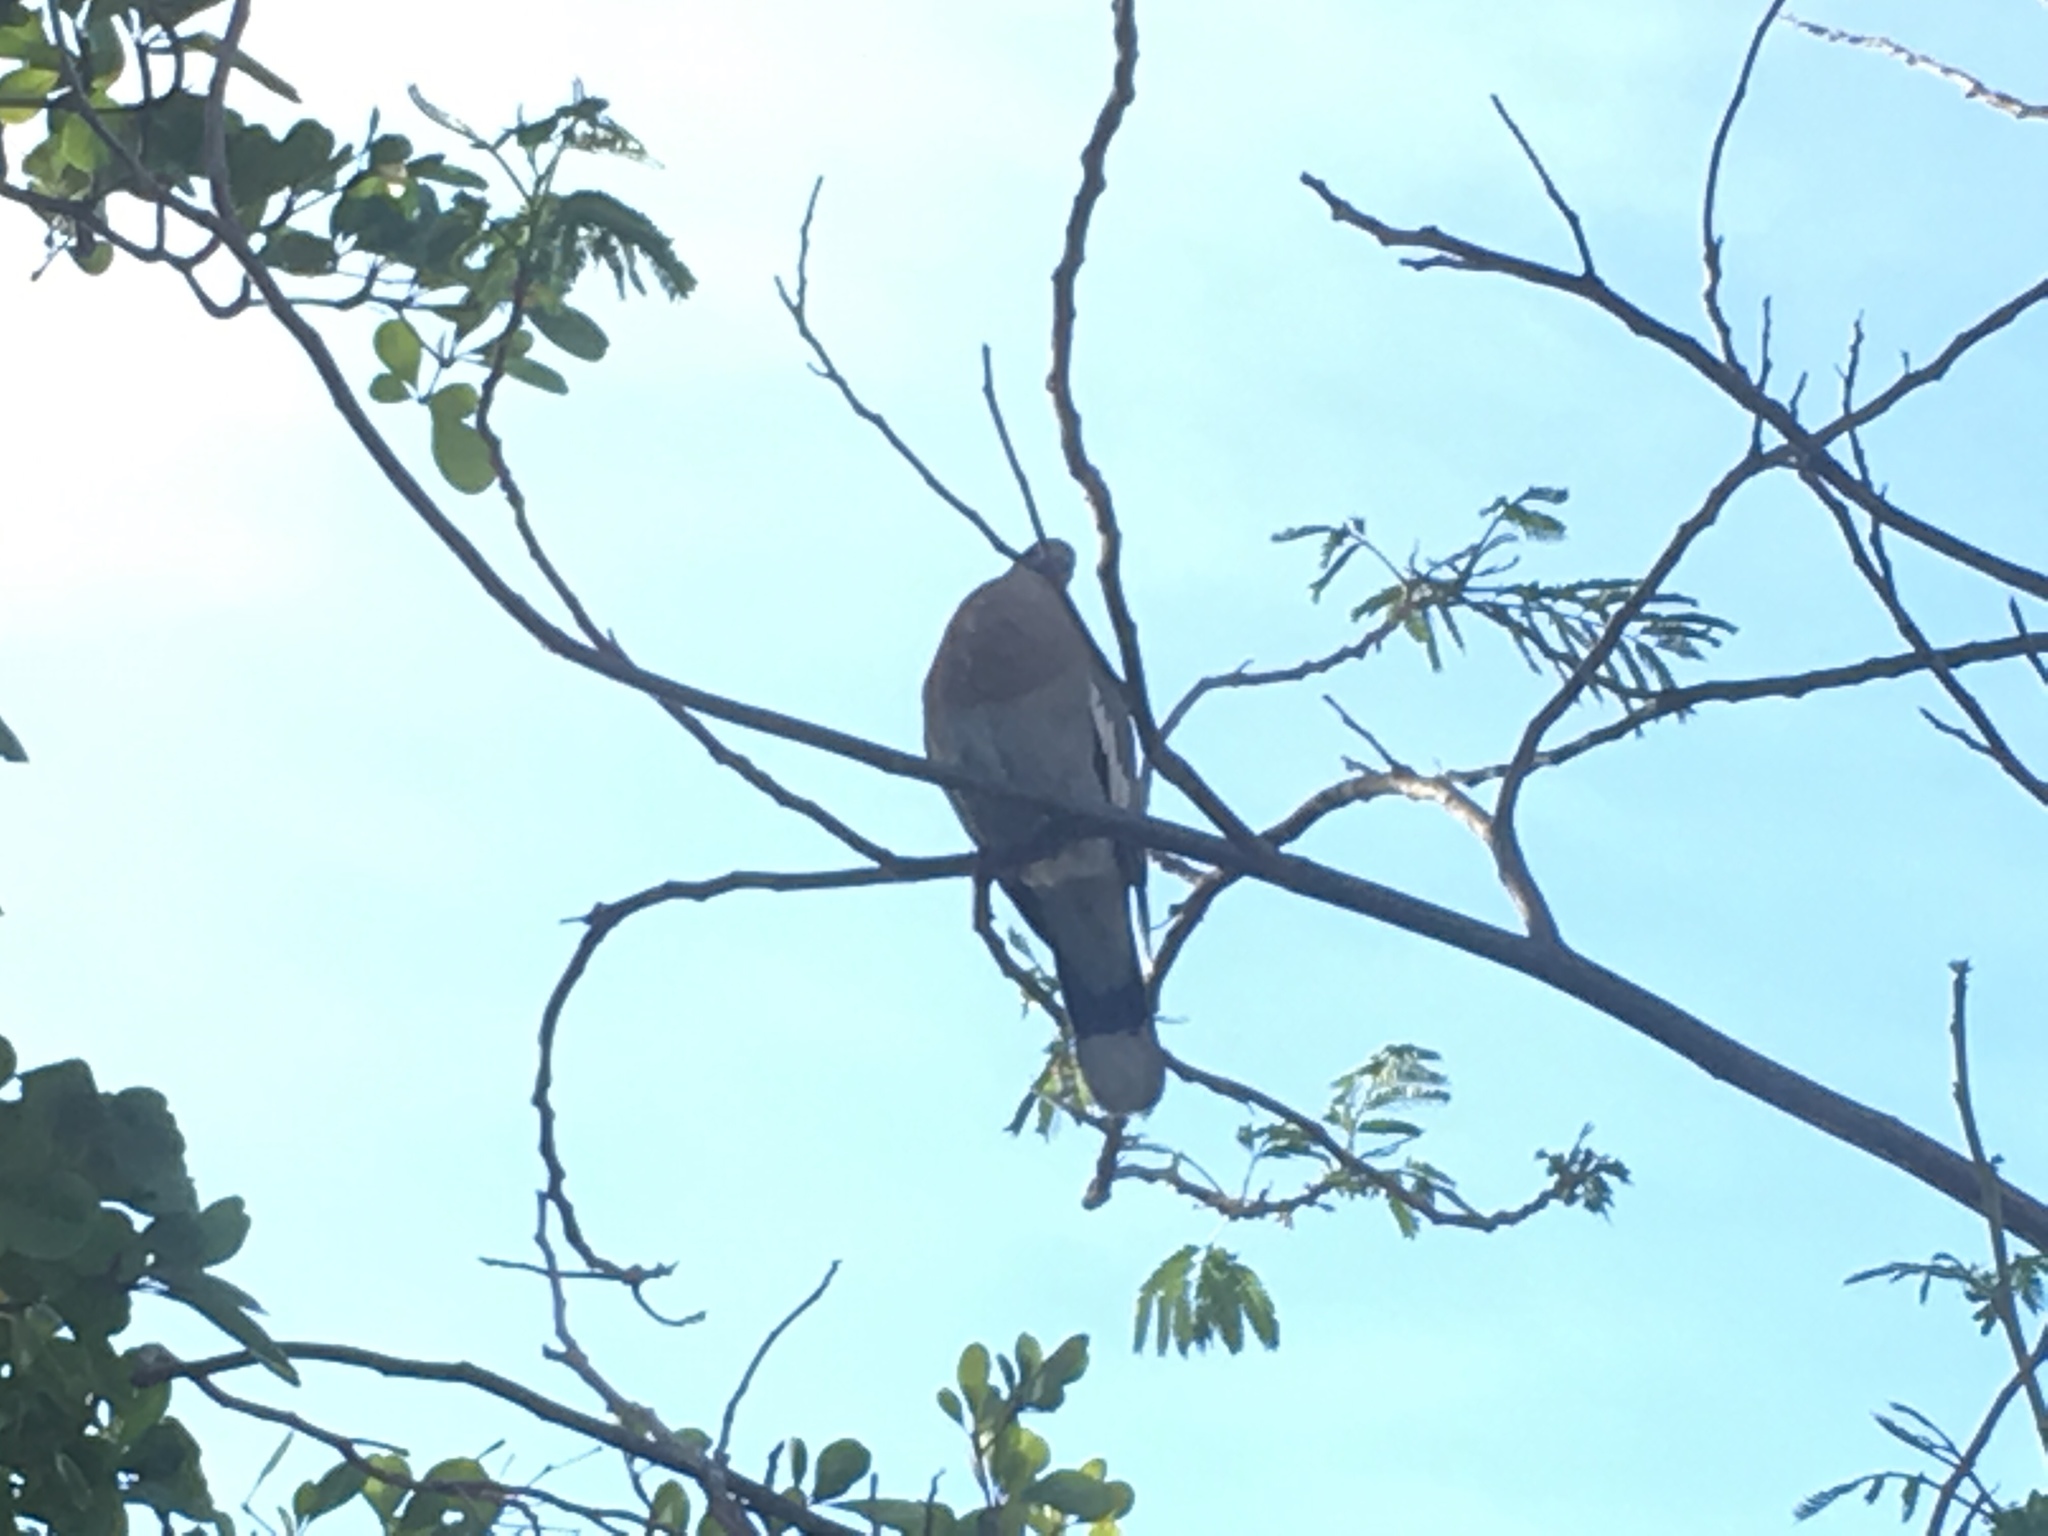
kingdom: Animalia
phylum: Chordata
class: Aves
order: Columbiformes
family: Columbidae
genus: Zenaida
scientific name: Zenaida asiatica
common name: White-winged dove
